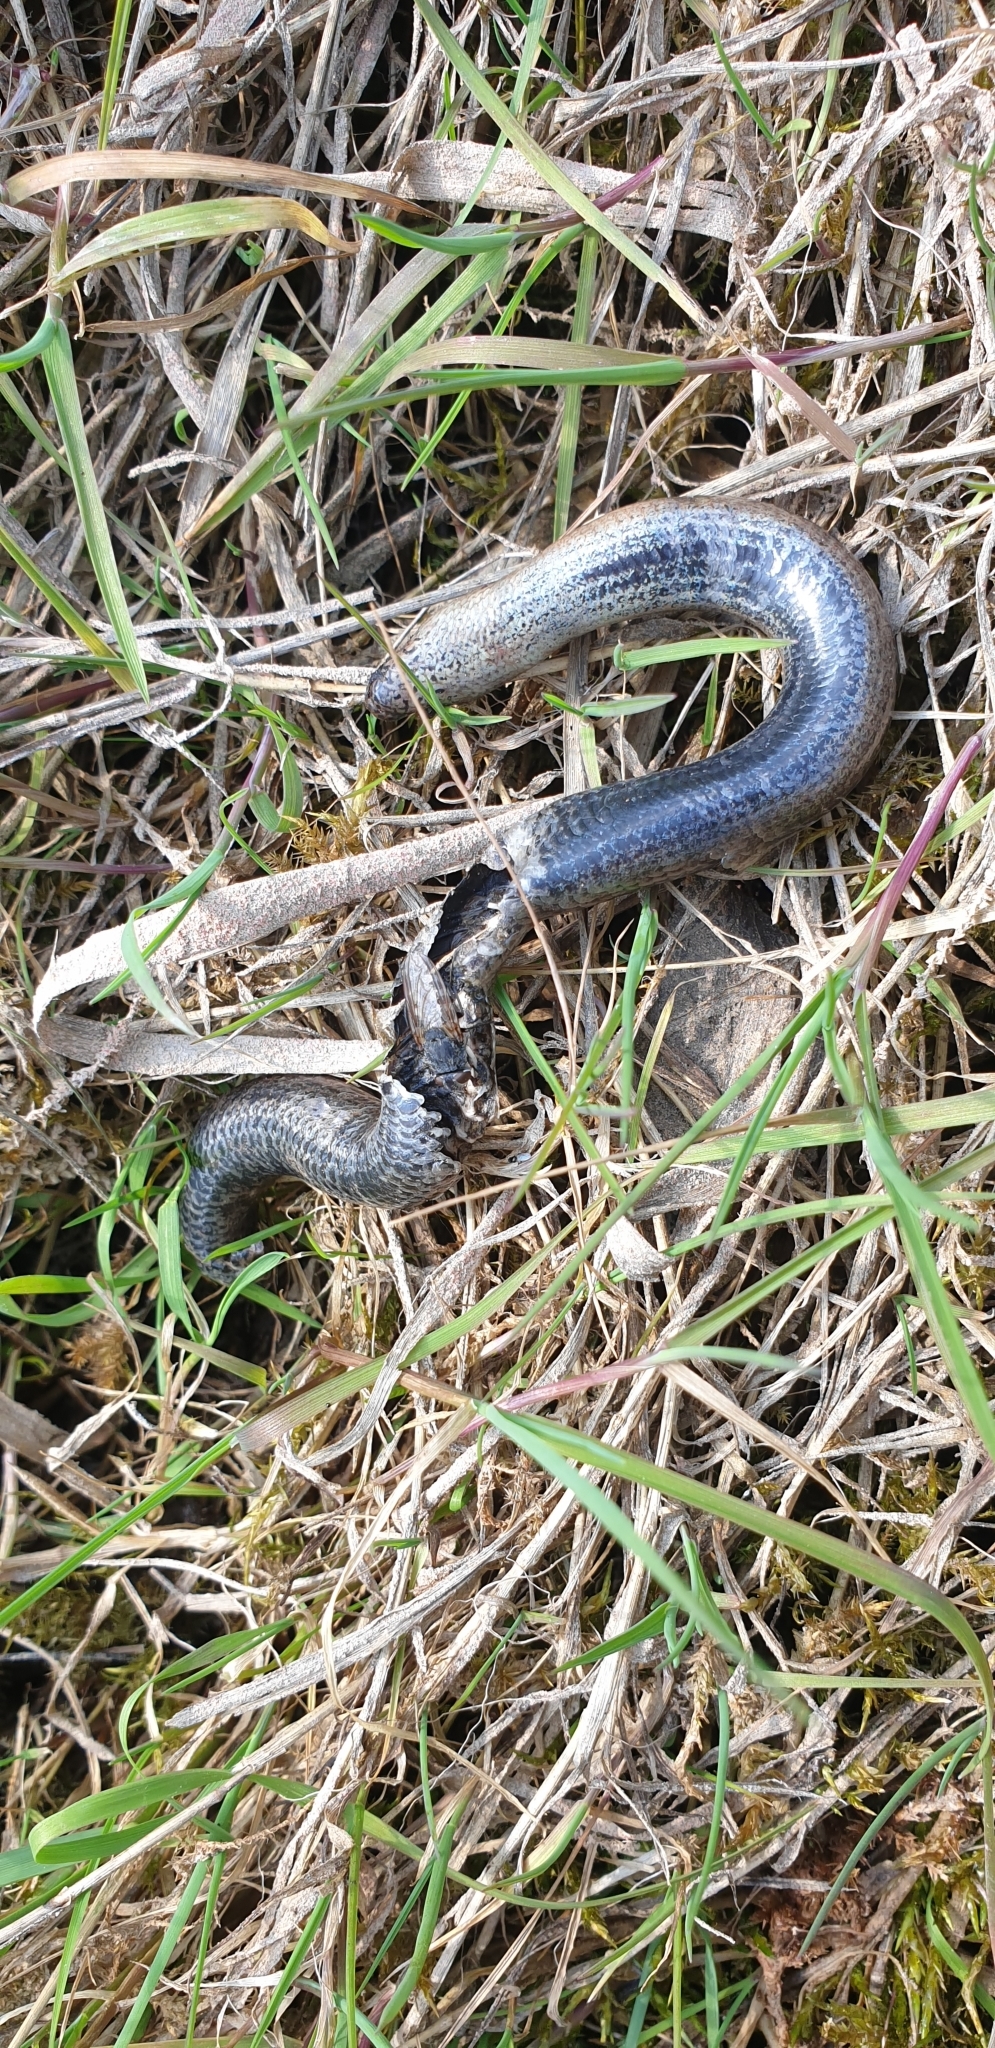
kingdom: Animalia
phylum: Chordata
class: Squamata
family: Anguidae
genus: Anguis
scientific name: Anguis fragilis
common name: Slow worm
